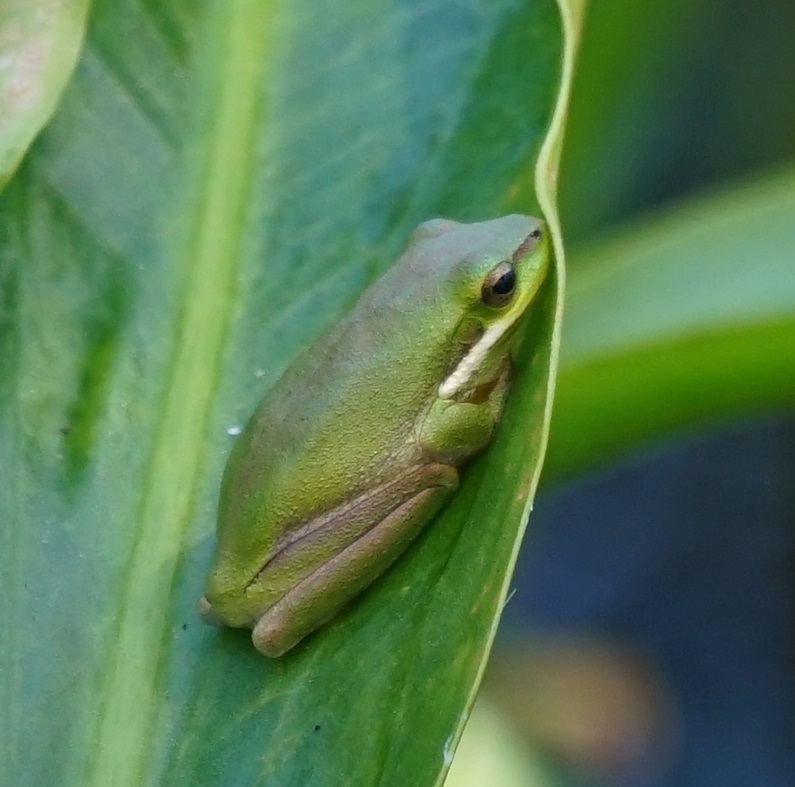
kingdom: Animalia
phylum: Chordata
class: Amphibia
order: Anura
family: Pelodryadidae
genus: Litoria
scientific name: Litoria fallax
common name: Eastern dwarf treefrog
